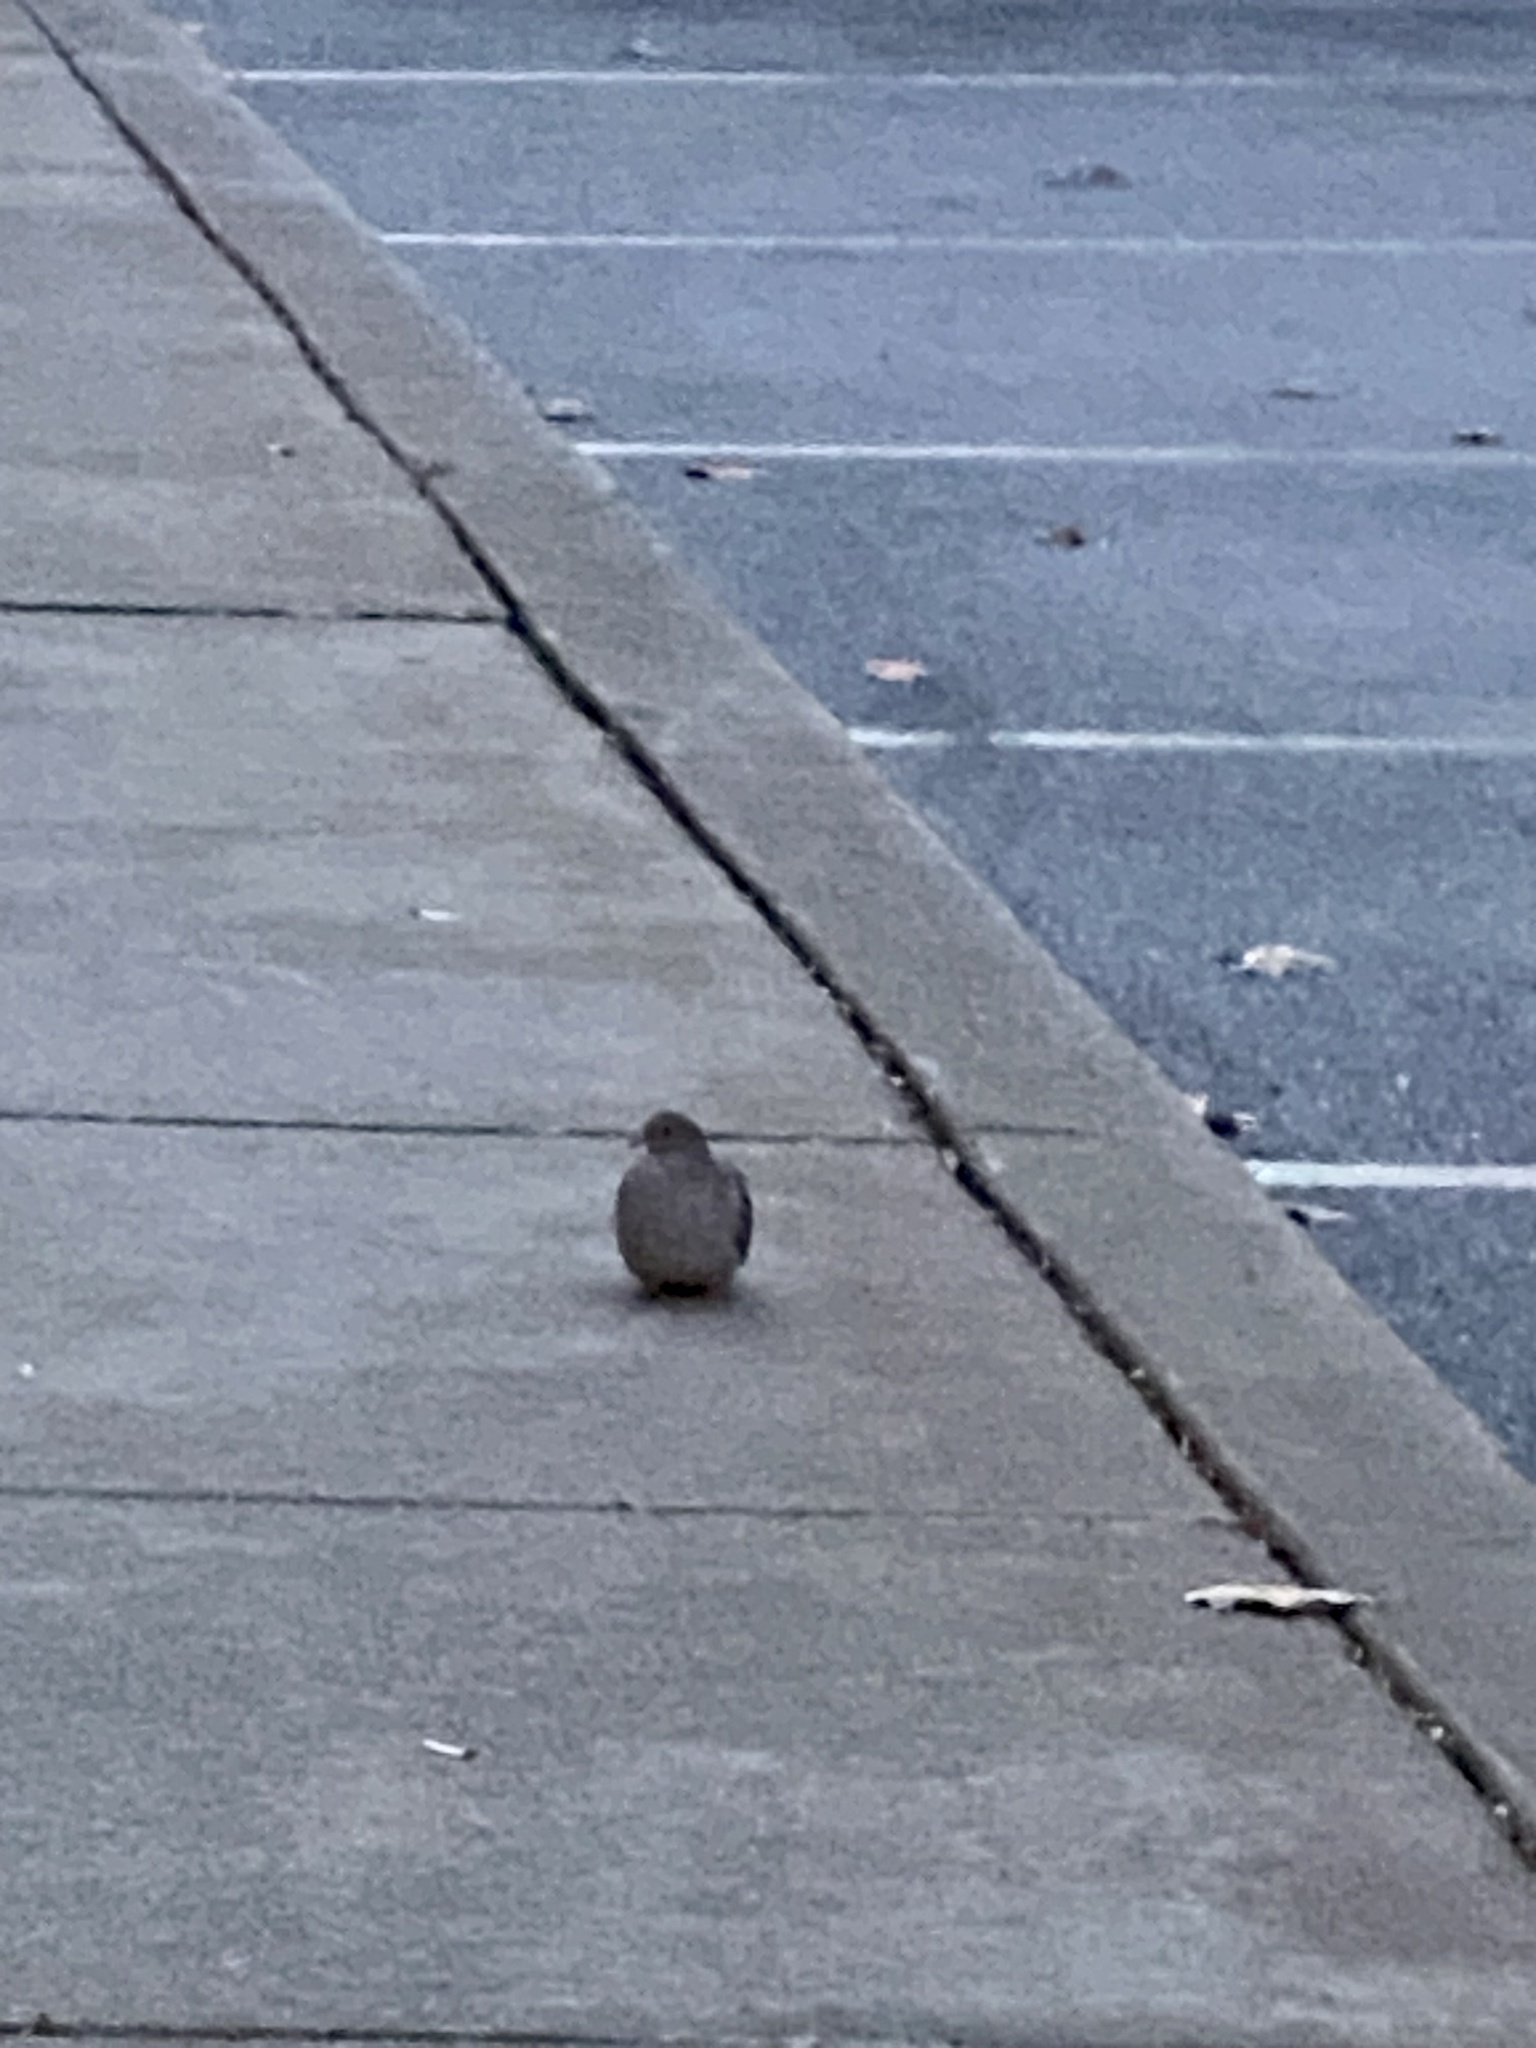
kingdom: Animalia
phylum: Chordata
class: Aves
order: Columbiformes
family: Columbidae
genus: Zenaida
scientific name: Zenaida macroura
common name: Mourning dove
